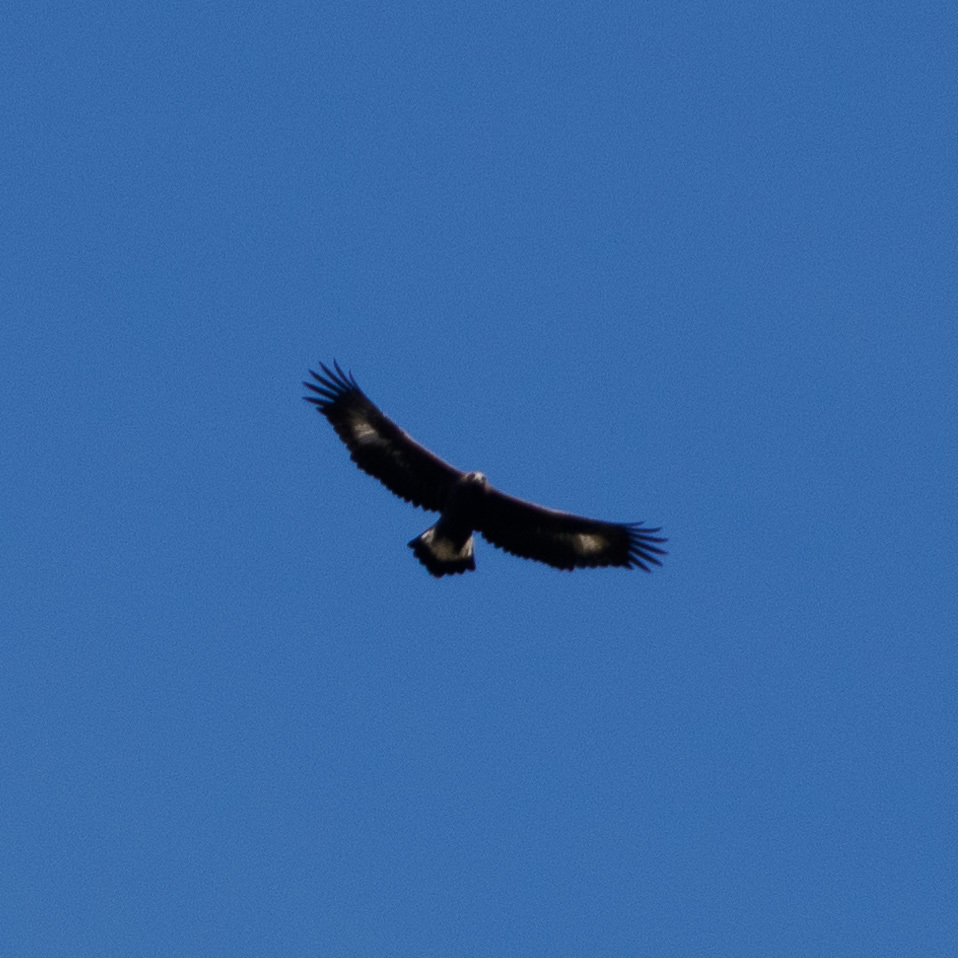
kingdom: Animalia
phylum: Chordata
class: Aves
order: Accipitriformes
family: Accipitridae
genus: Aquila
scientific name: Aquila chrysaetos
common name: Golden eagle
